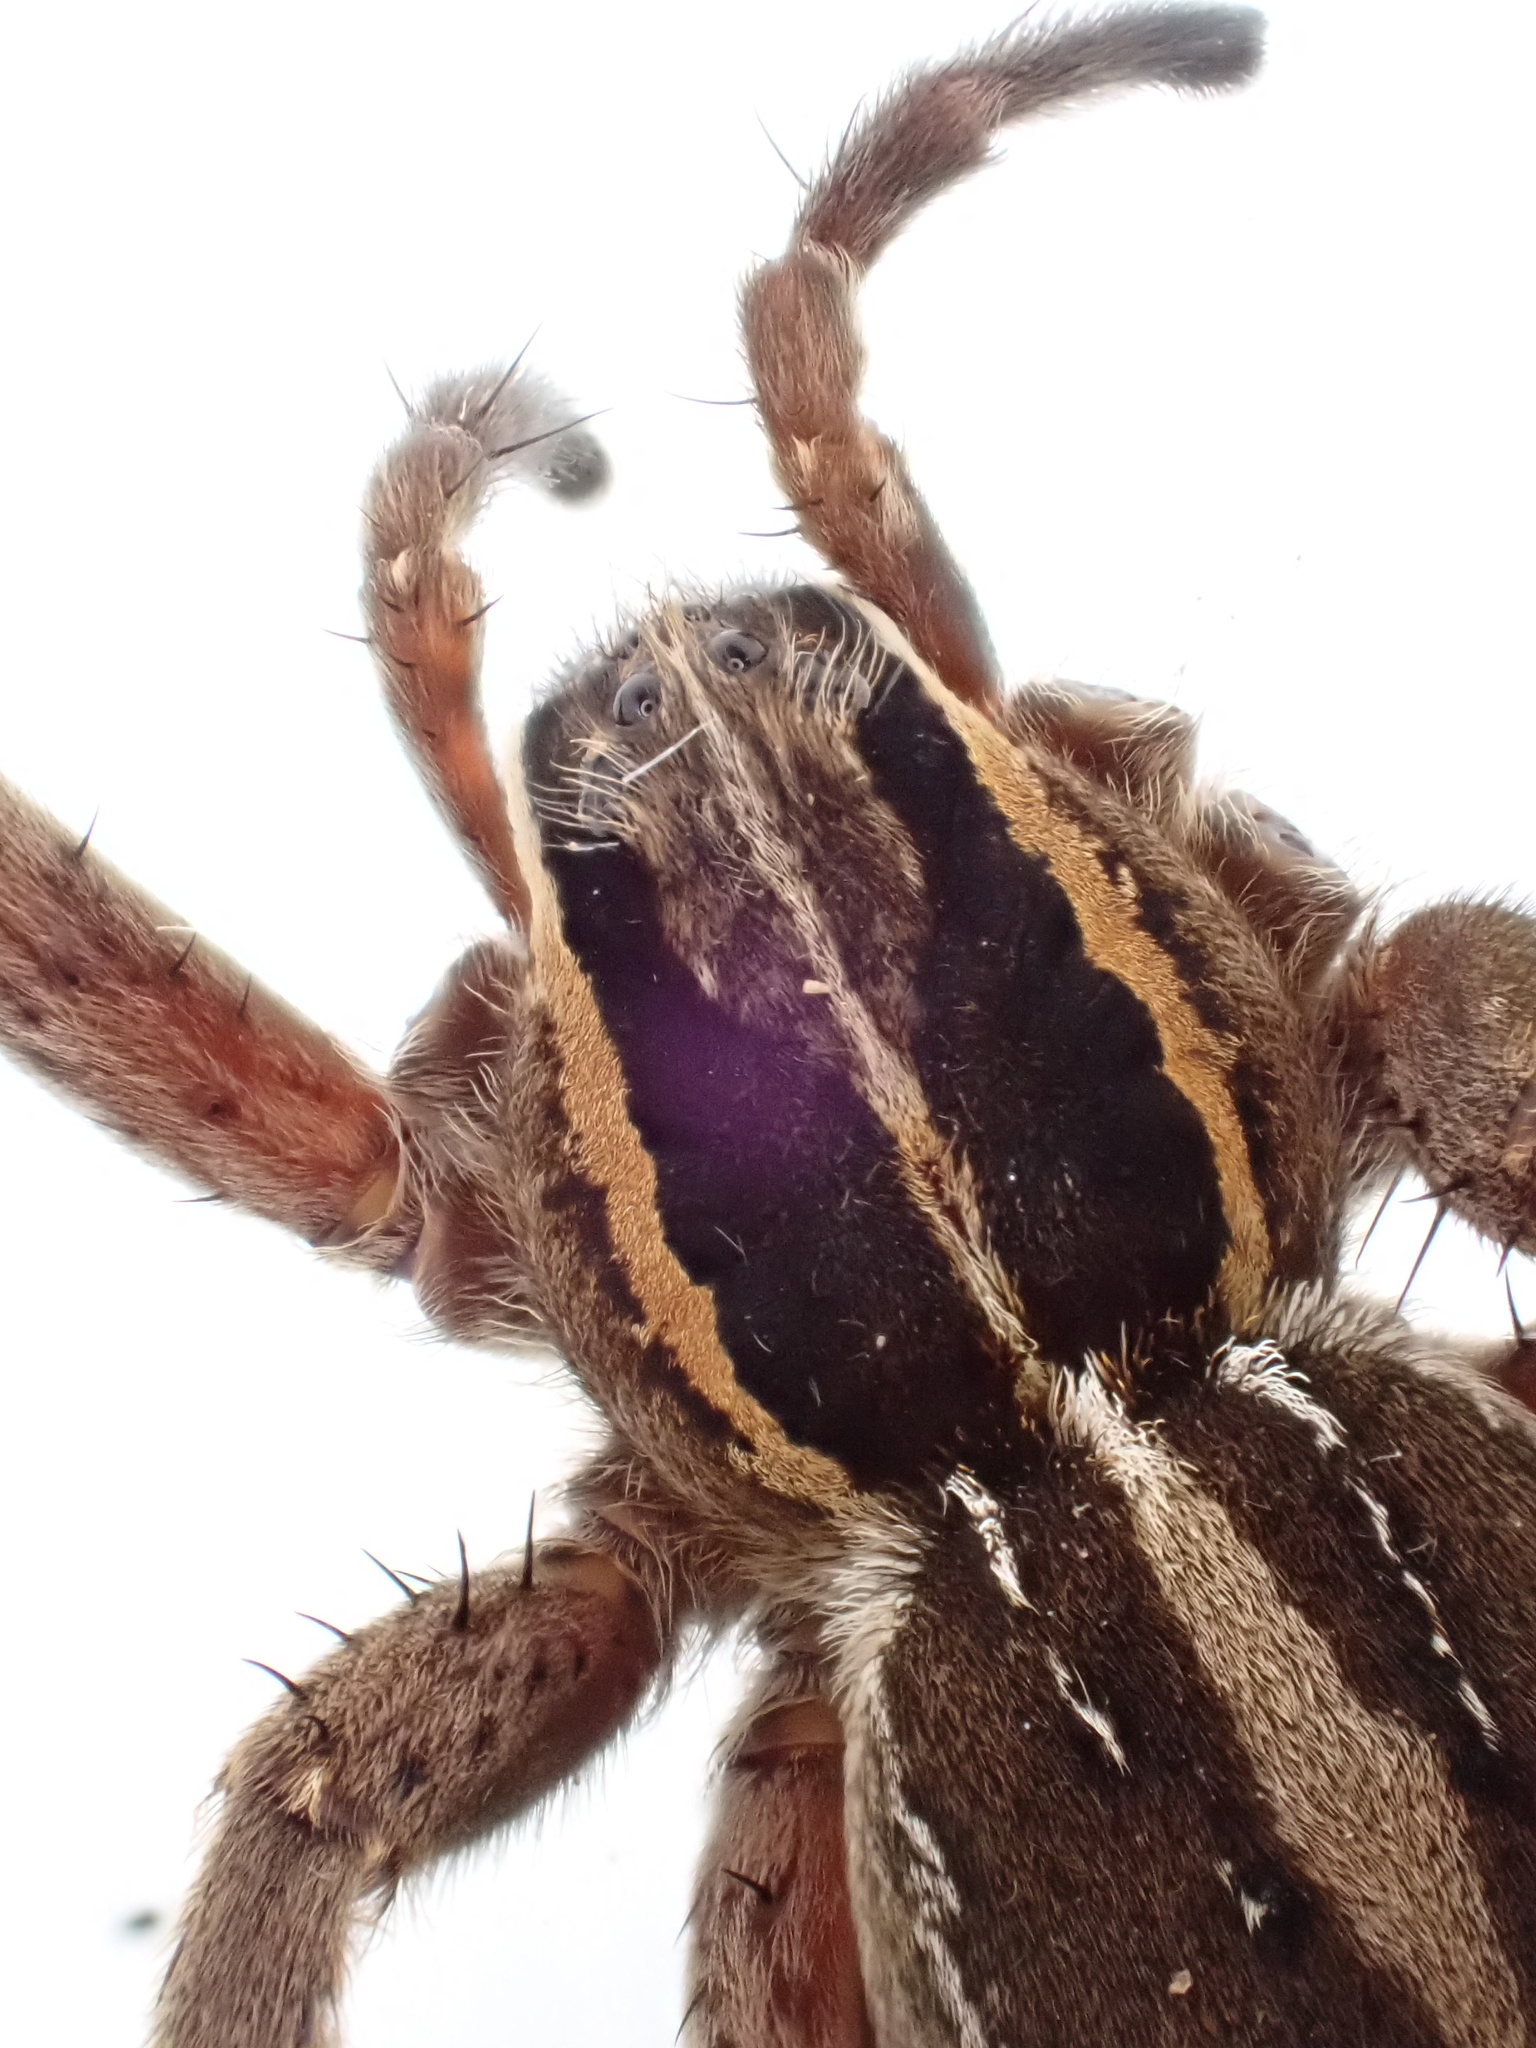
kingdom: Animalia
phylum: Arthropoda
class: Arachnida
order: Araneae
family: Pisauridae
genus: Dolomedes
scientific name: Dolomedes minor
